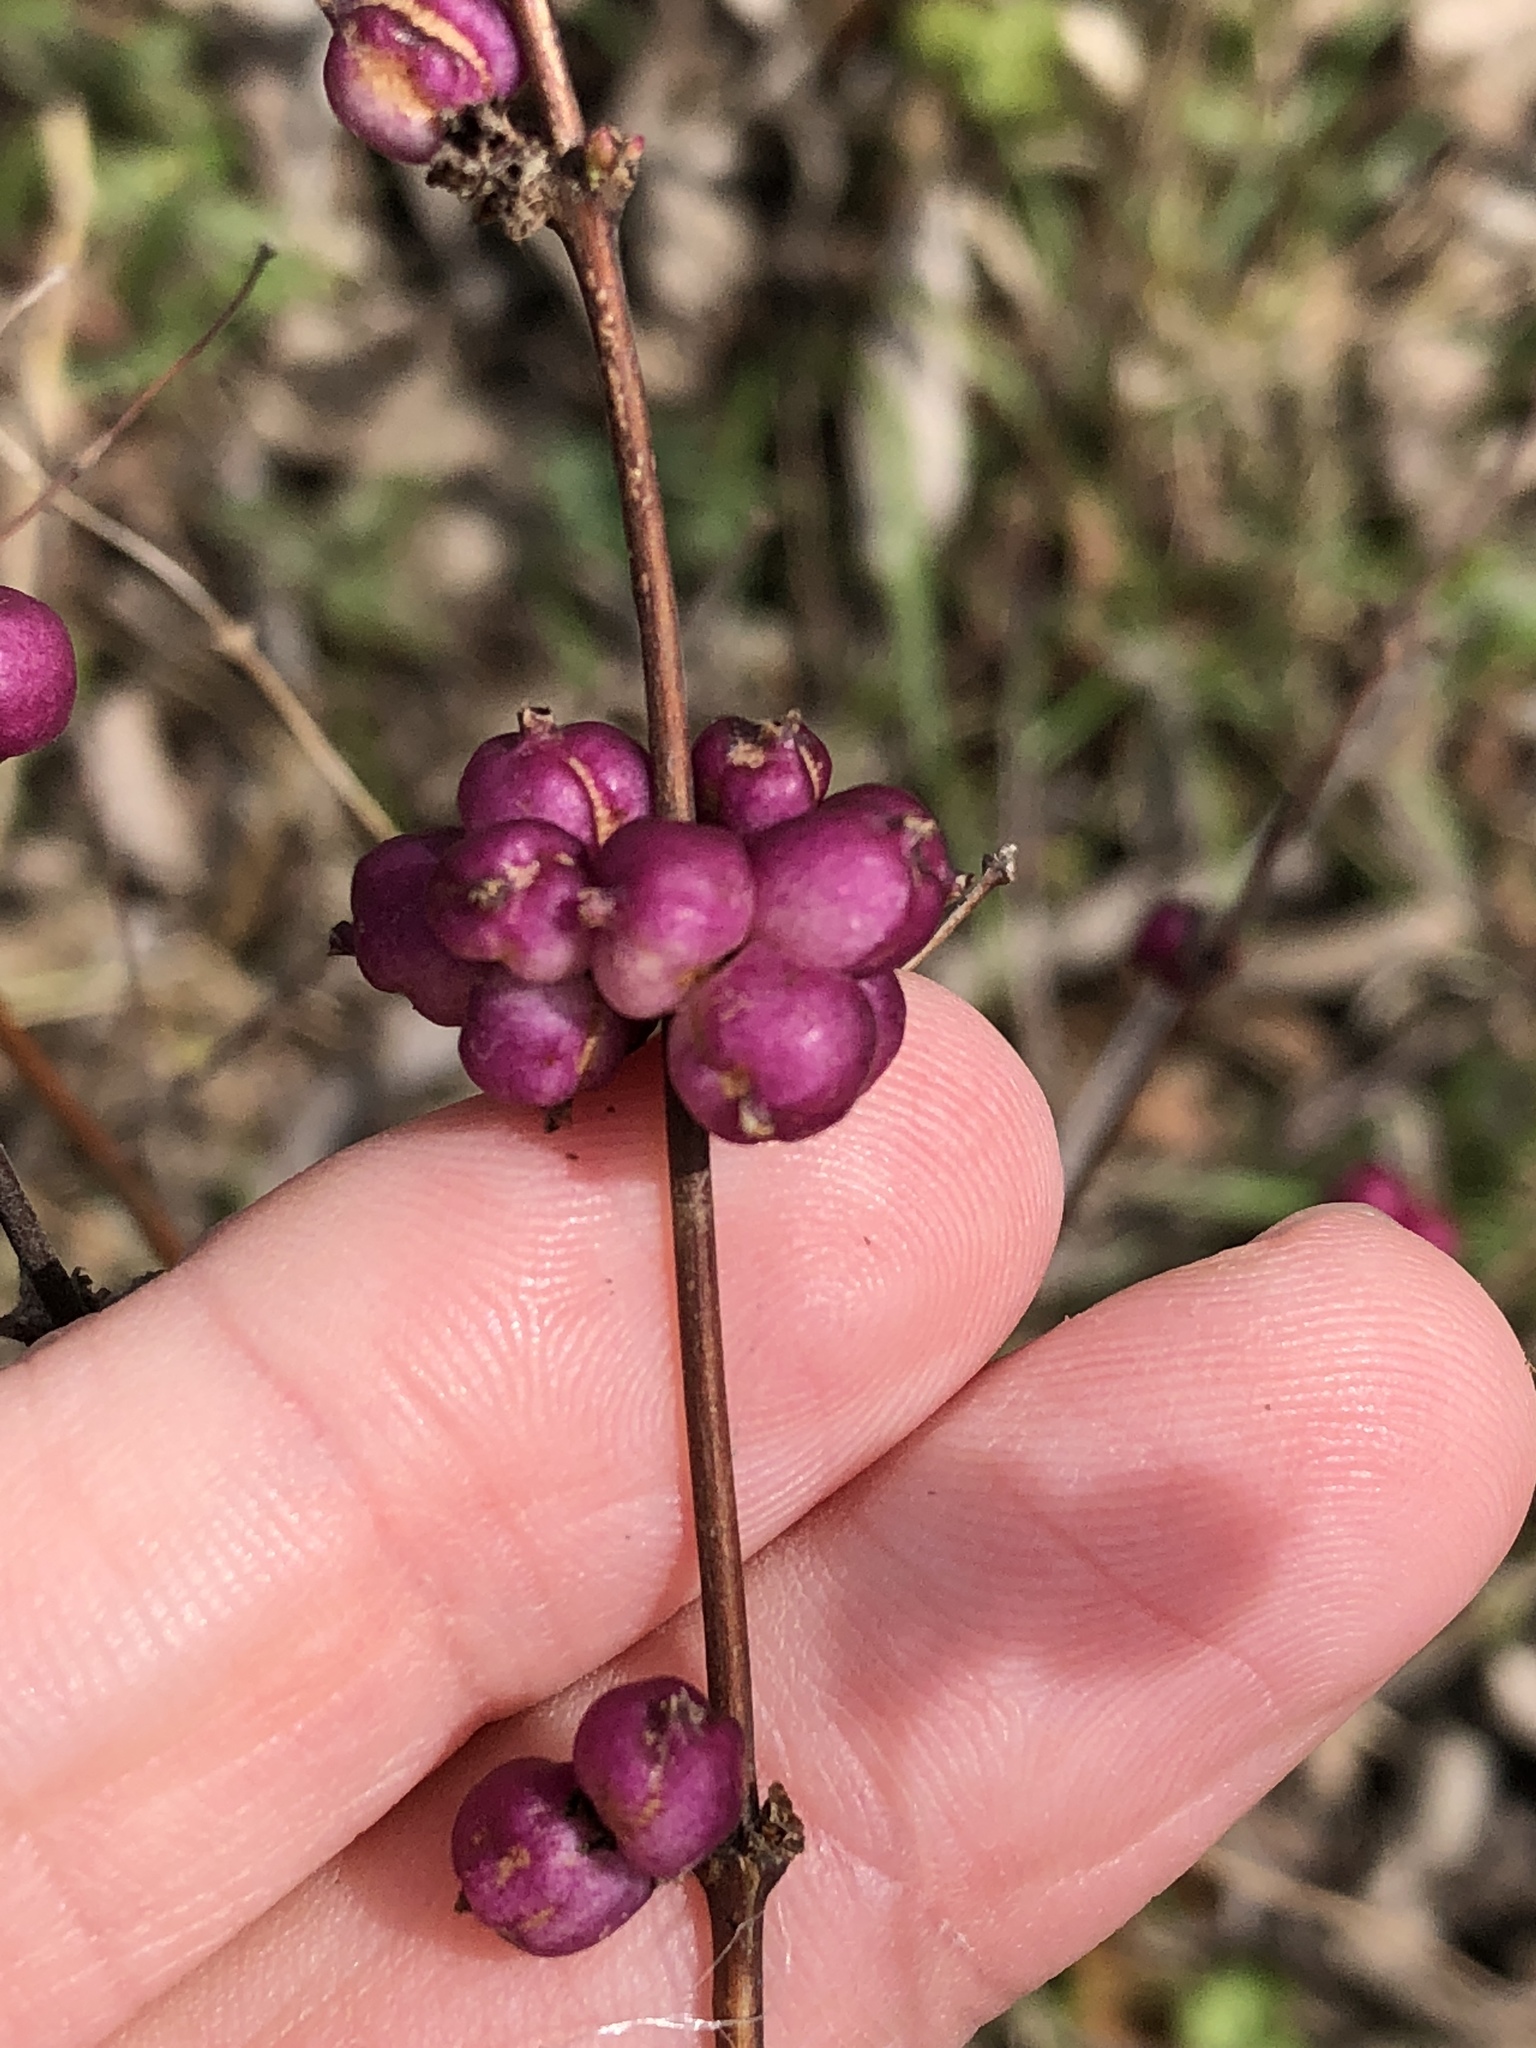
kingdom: Plantae
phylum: Tracheophyta
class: Magnoliopsida
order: Dipsacales
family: Caprifoliaceae
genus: Symphoricarpos
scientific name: Symphoricarpos orbiculatus
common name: Coralberry
